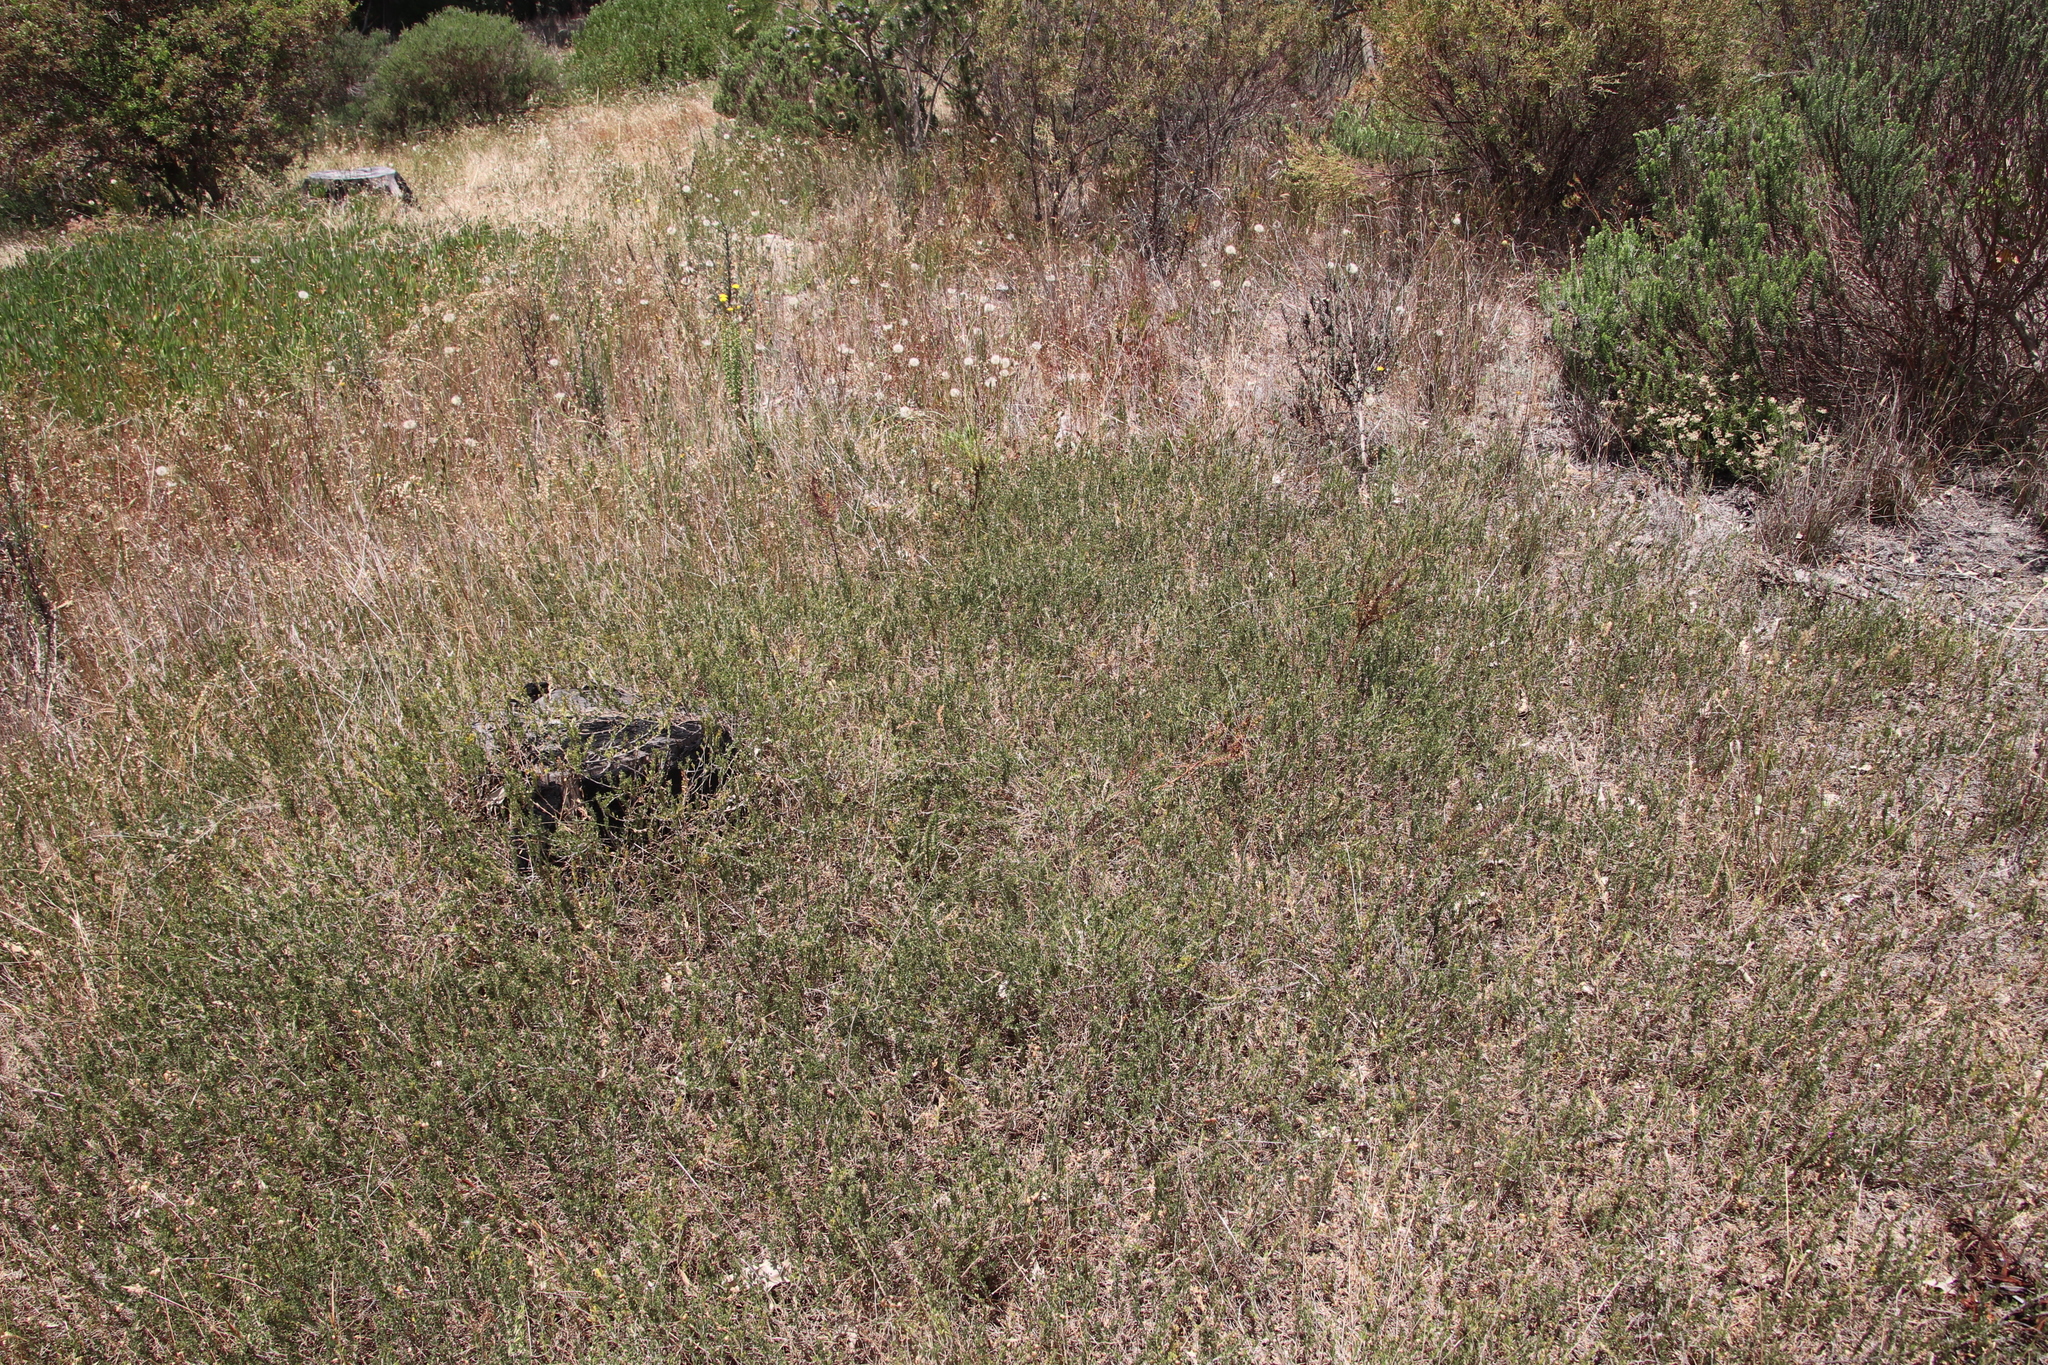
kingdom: Plantae
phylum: Tracheophyta
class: Magnoliopsida
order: Fabales
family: Fabaceae
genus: Psoralea
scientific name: Psoralea
